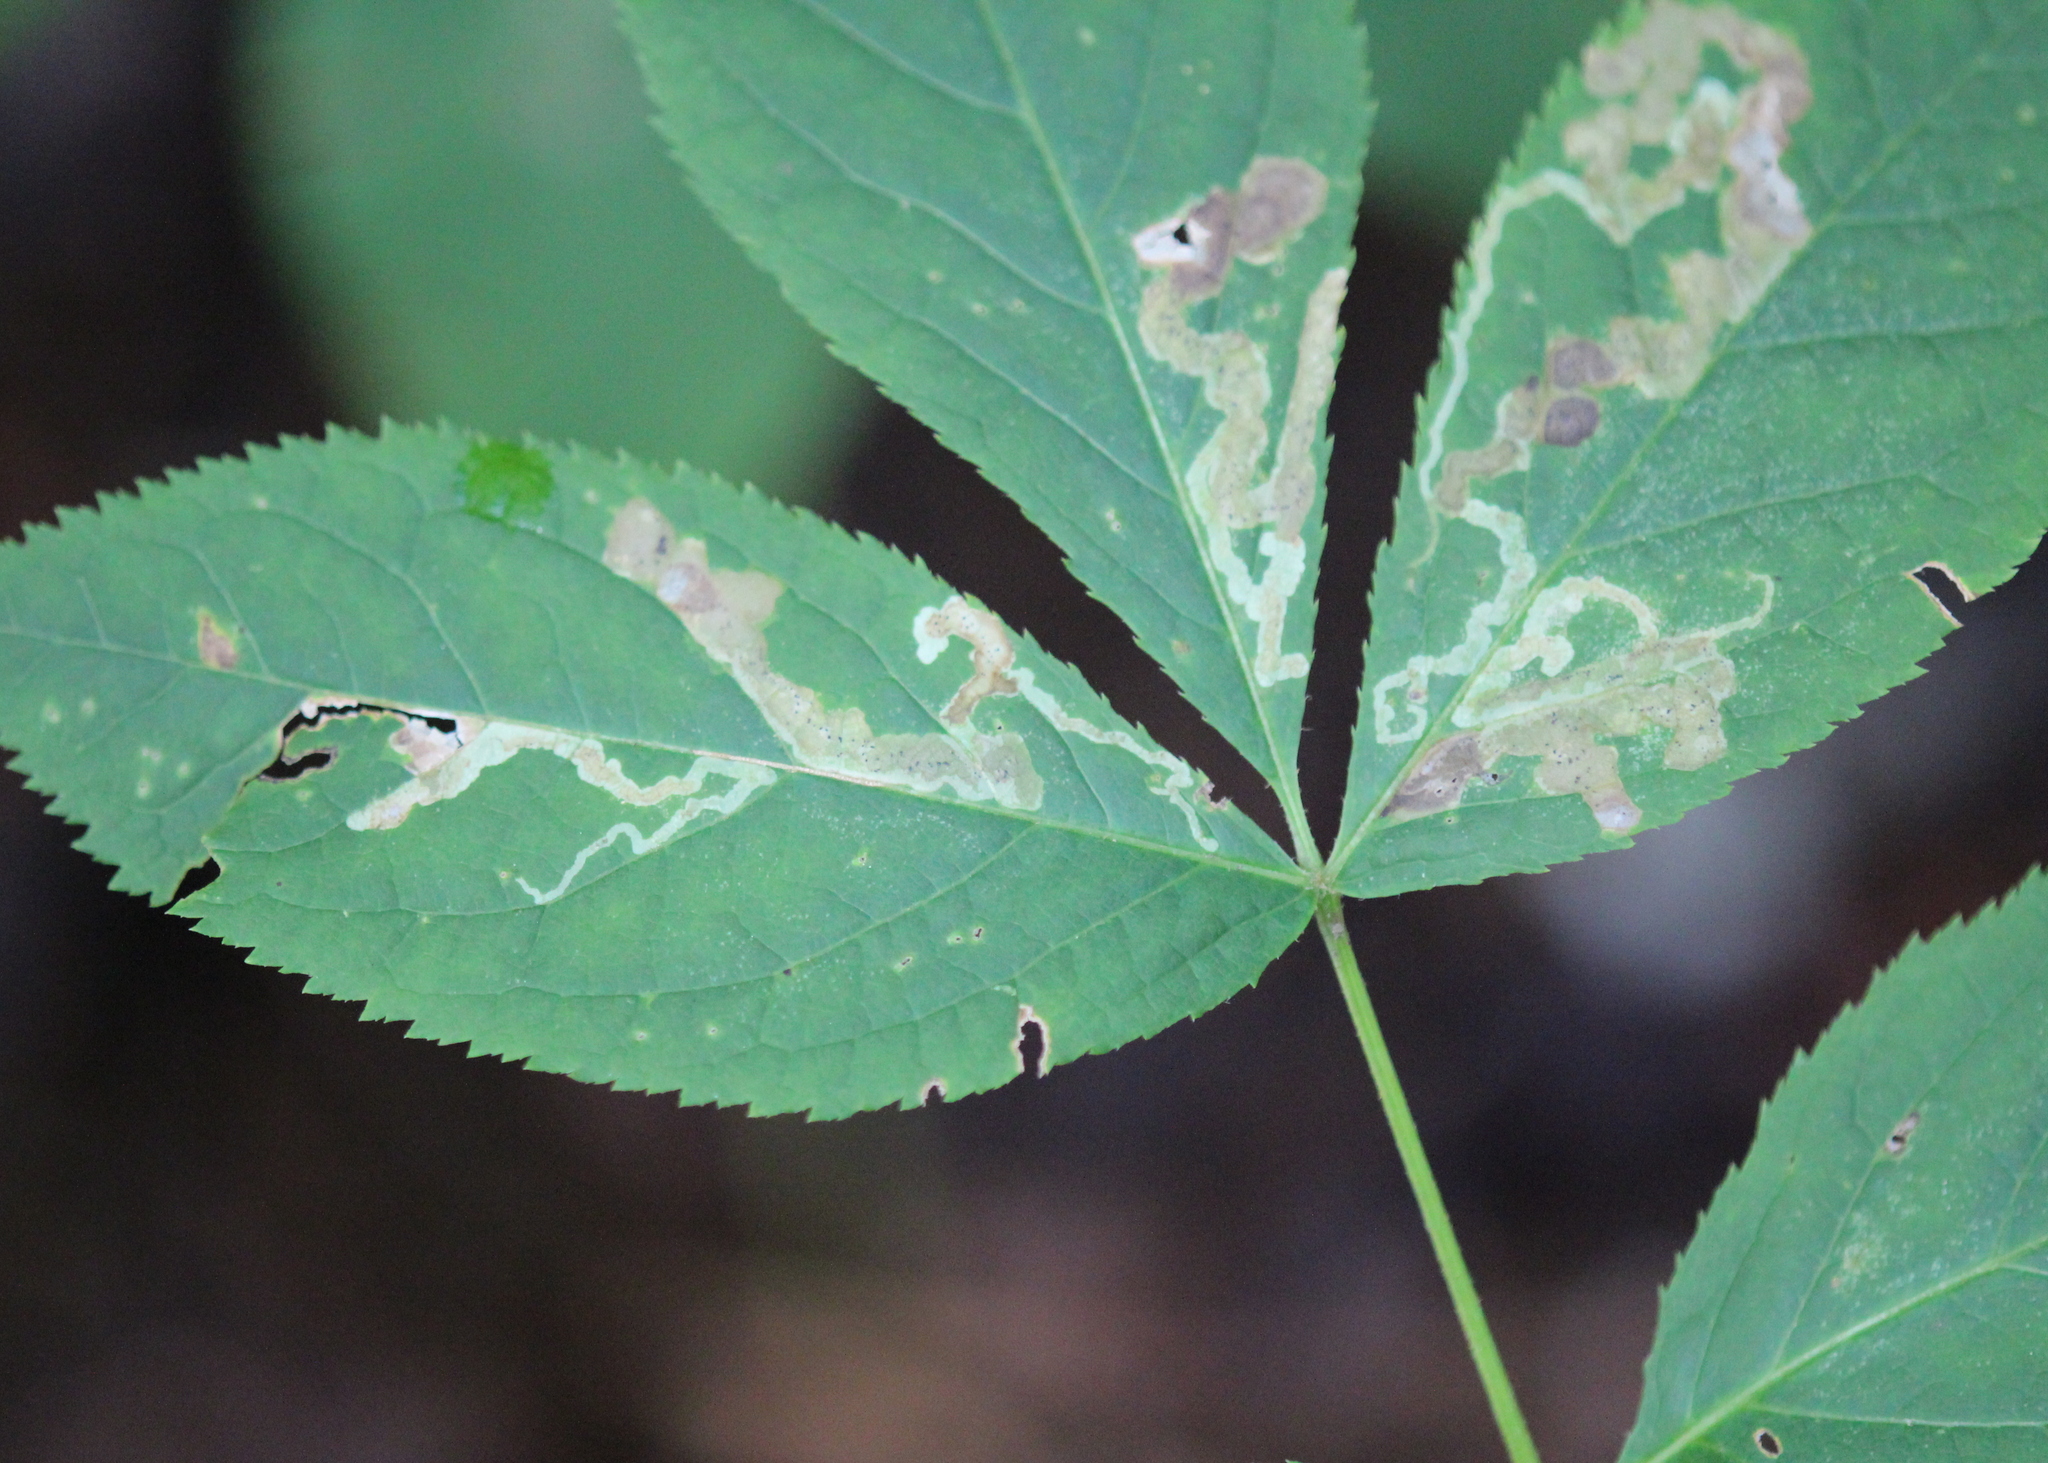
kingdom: Animalia
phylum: Arthropoda
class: Insecta
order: Diptera
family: Agromyzidae
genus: Phytomyza
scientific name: Phytomyza aralivora
